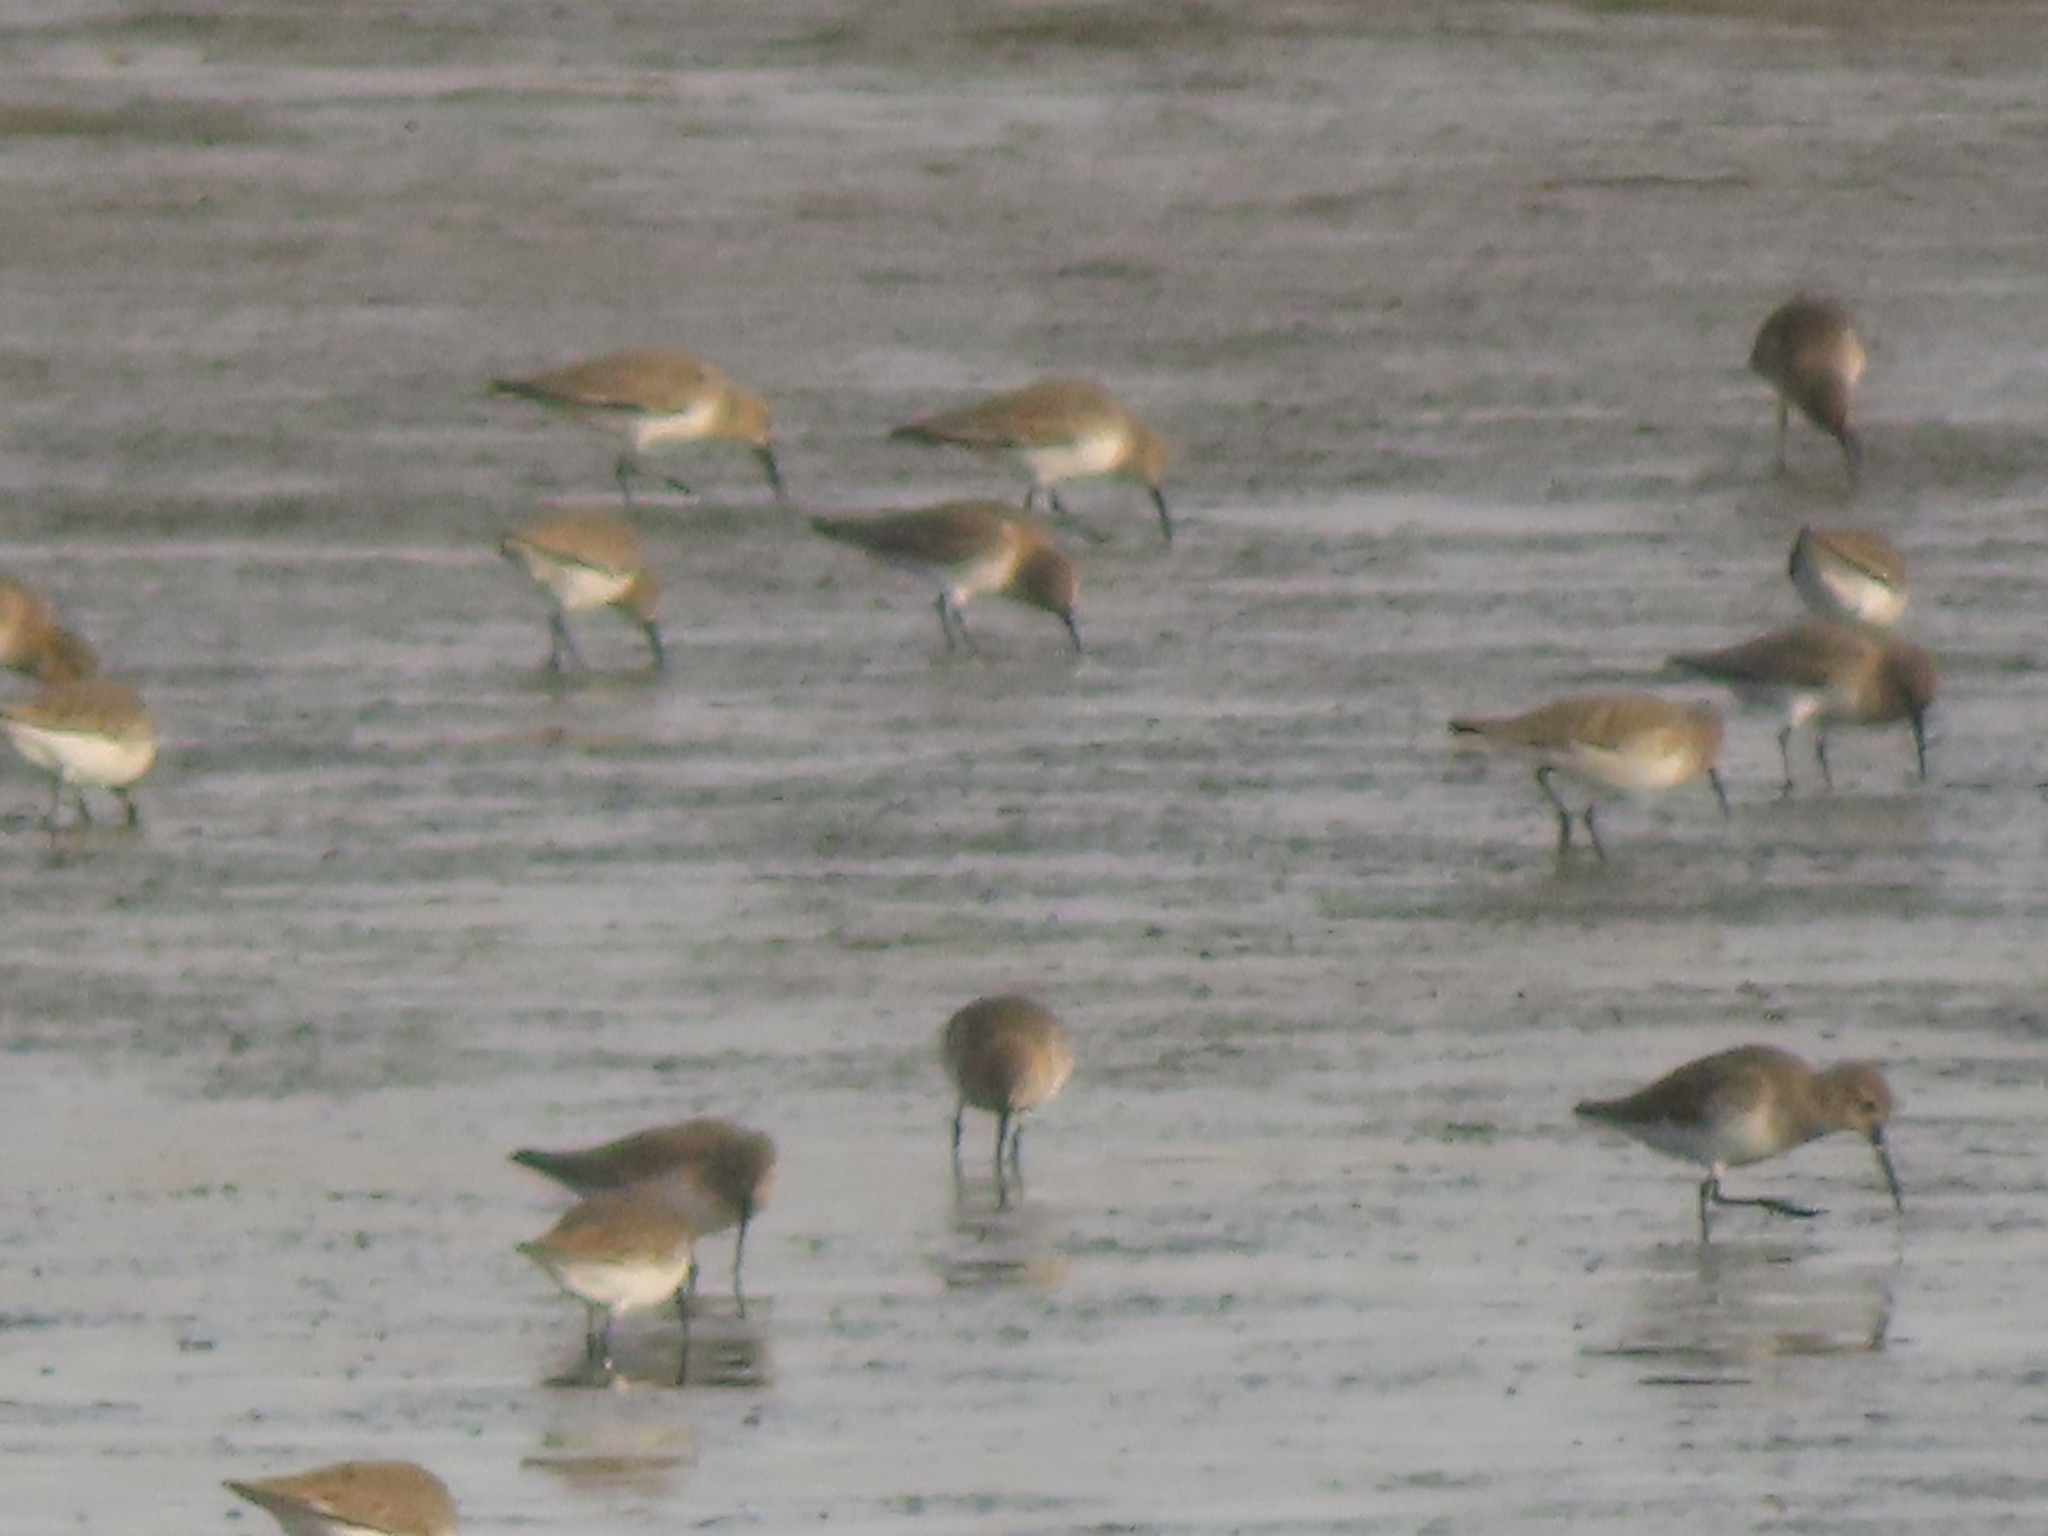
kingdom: Animalia
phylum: Chordata
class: Aves
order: Charadriiformes
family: Scolopacidae
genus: Calidris
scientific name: Calidris alpina
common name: Dunlin
